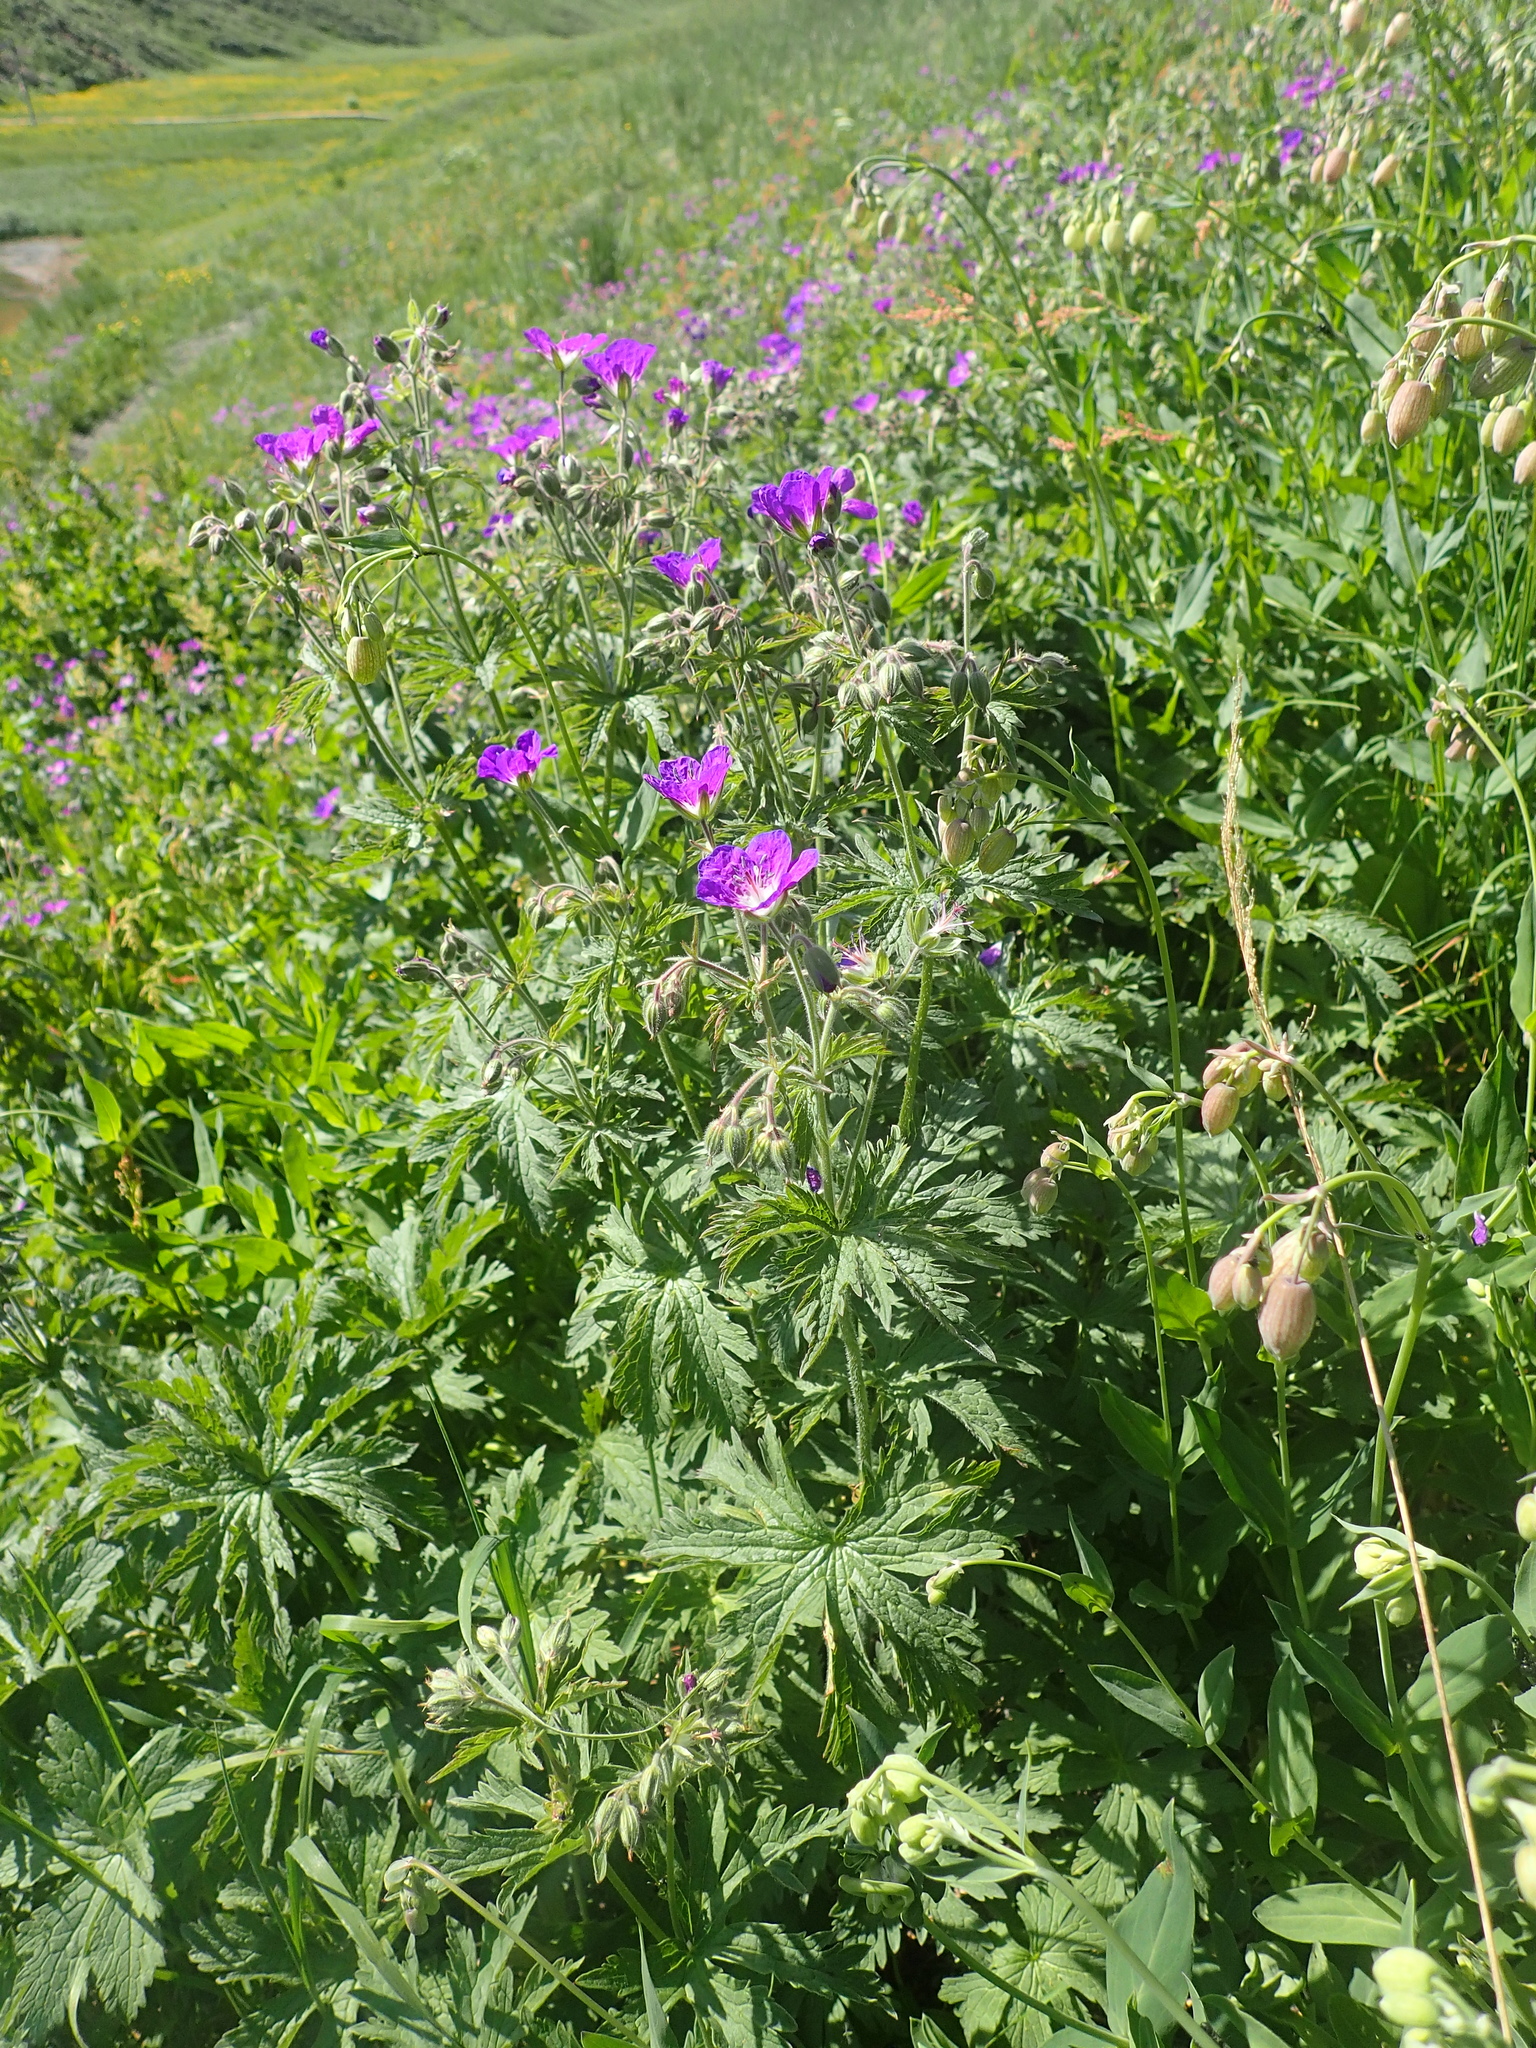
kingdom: Plantae
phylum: Tracheophyta
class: Magnoliopsida
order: Geraniales
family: Geraniaceae
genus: Geranium
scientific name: Geranium sylvaticum
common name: Wood crane's-bill
